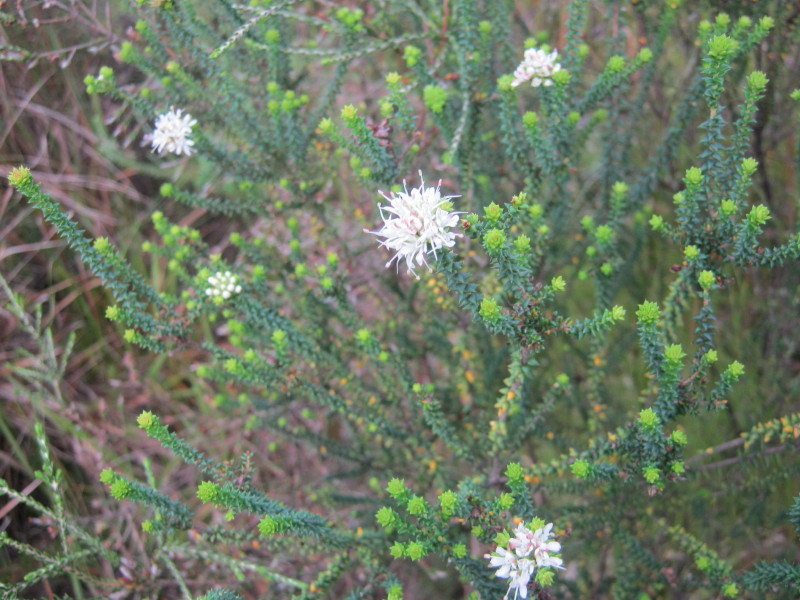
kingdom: Plantae
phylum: Tracheophyta
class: Magnoliopsida
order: Sapindales
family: Rutaceae
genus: Agathosma
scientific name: Agathosma apiculata
